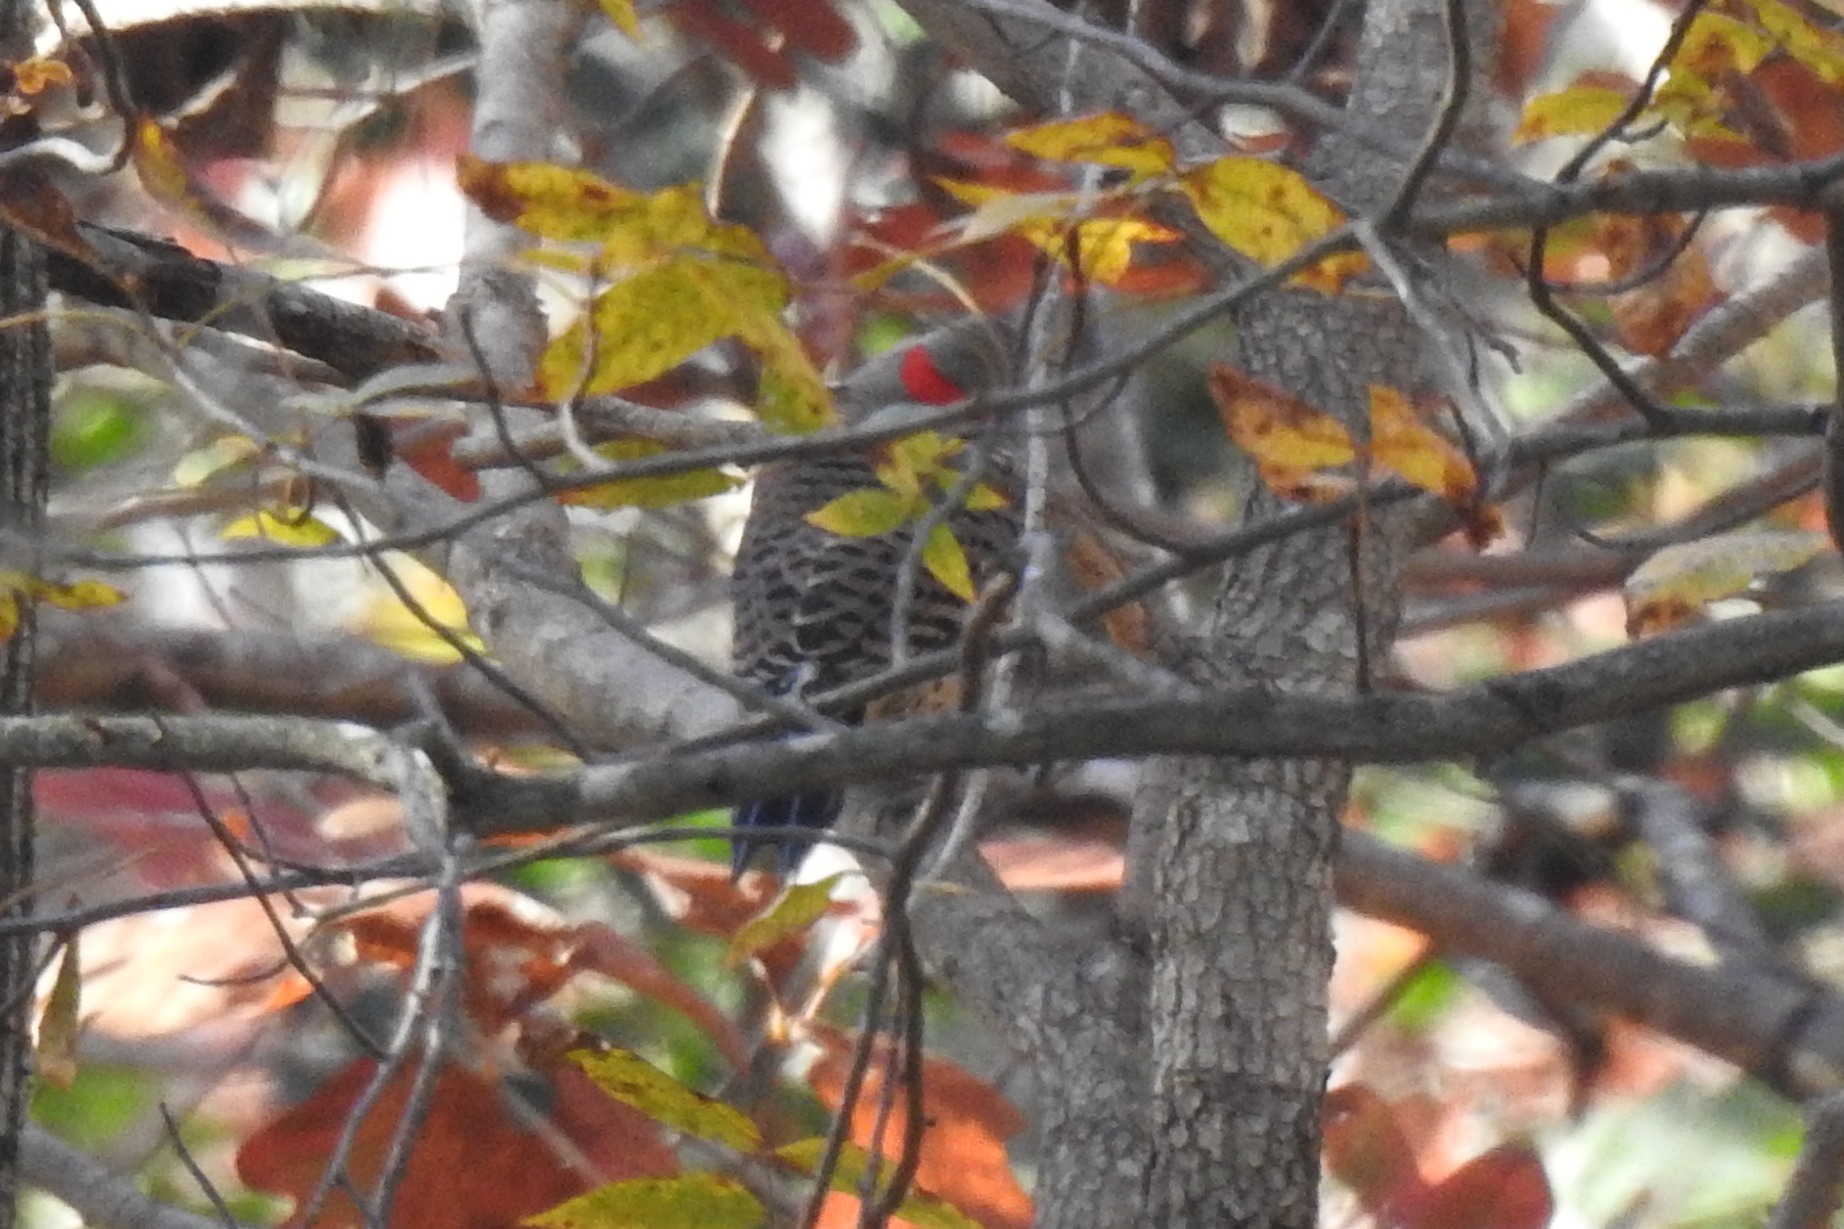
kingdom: Animalia
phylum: Chordata
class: Aves
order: Piciformes
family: Picidae
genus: Colaptes
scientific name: Colaptes auratus
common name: Northern flicker
